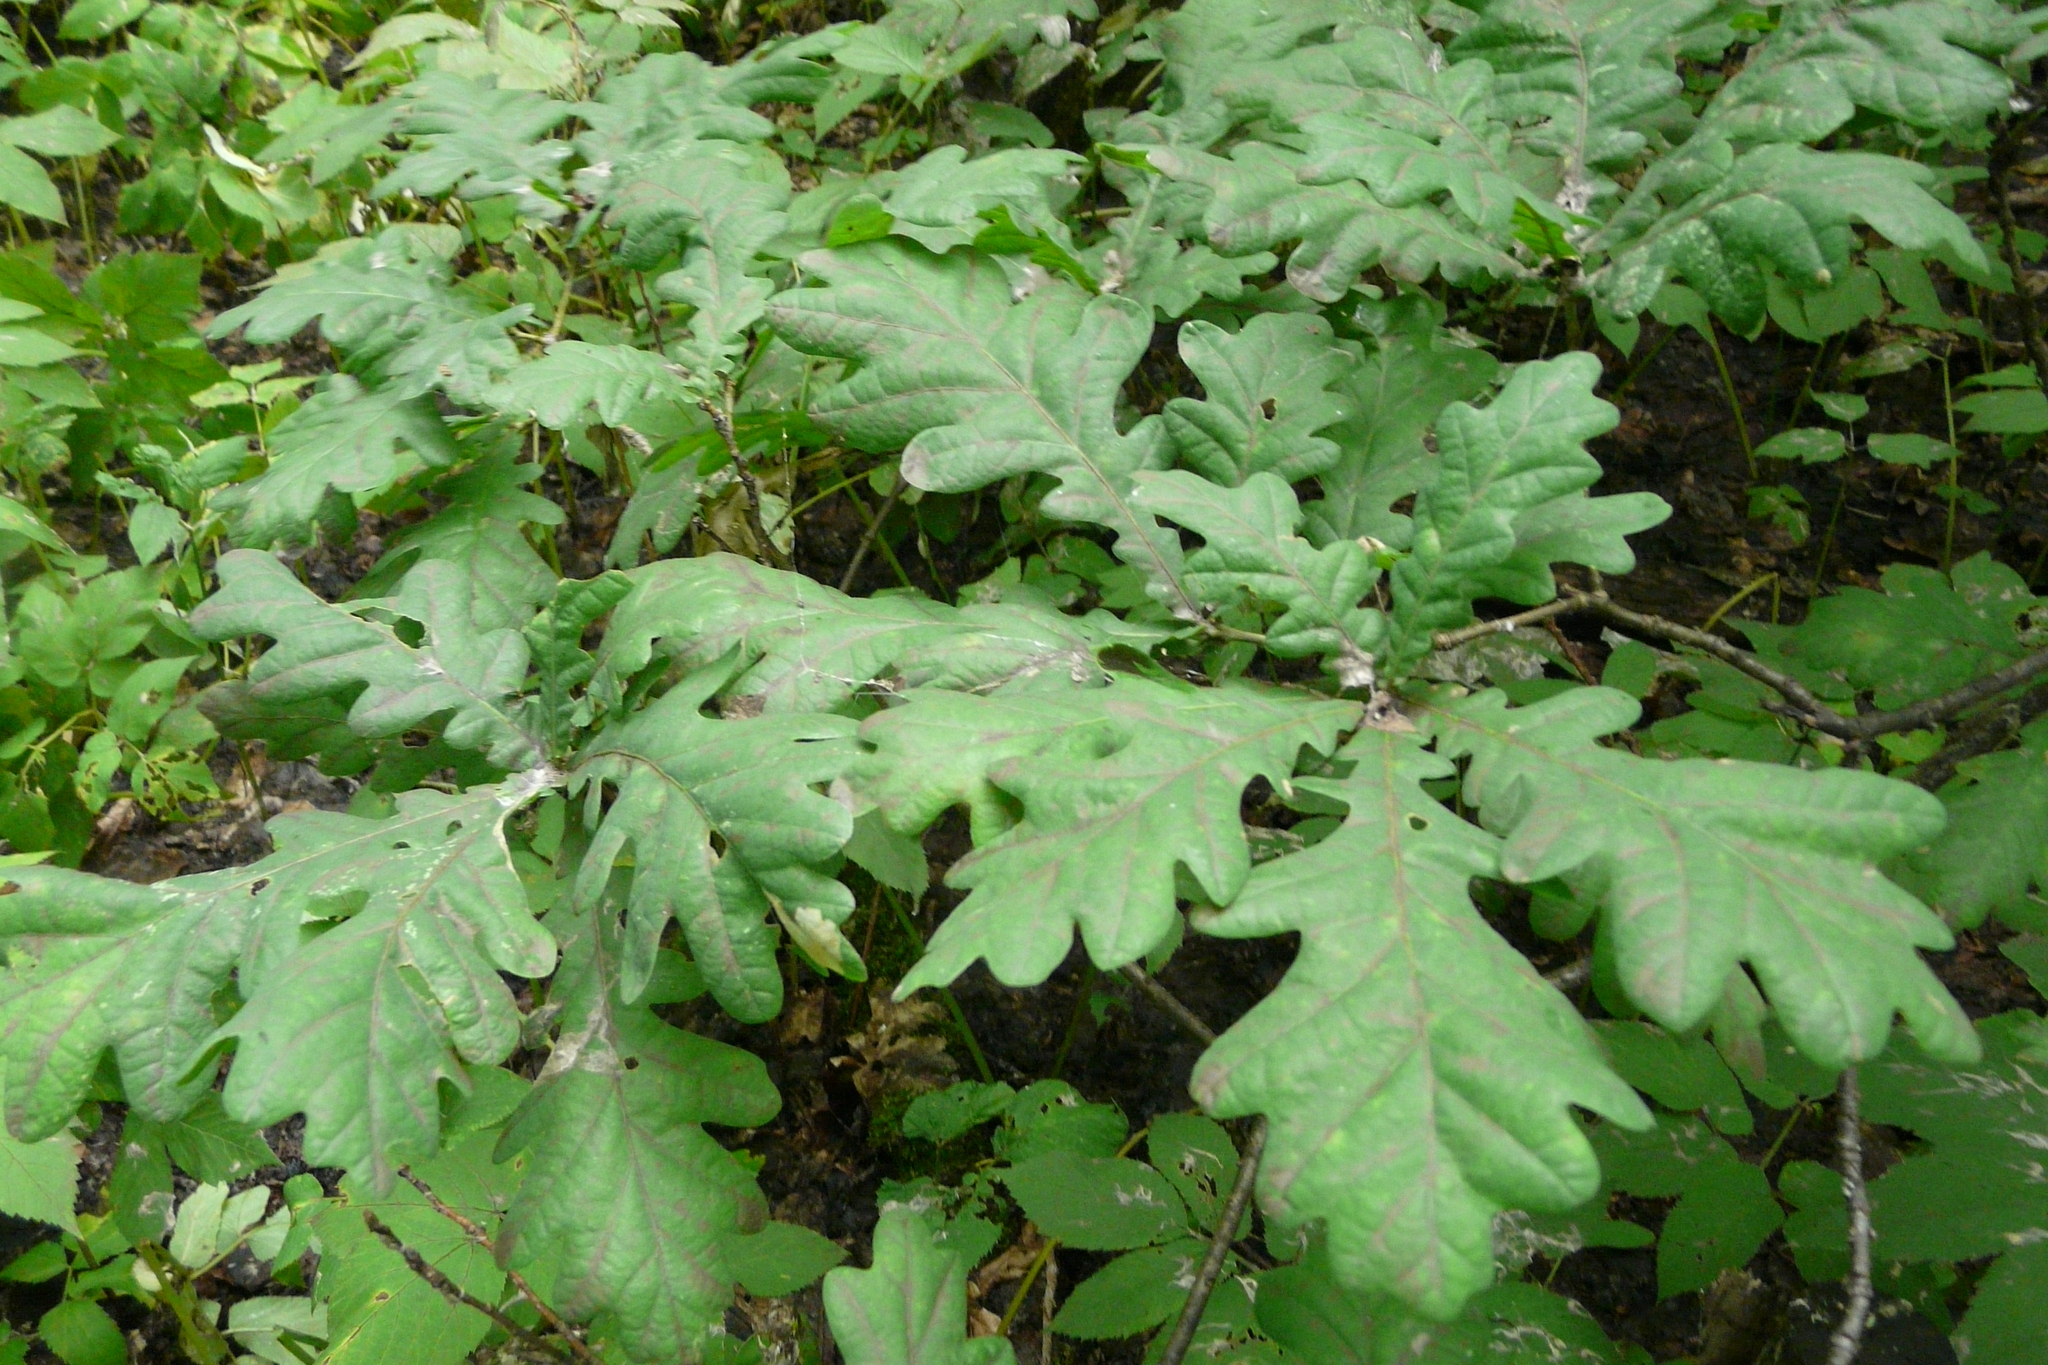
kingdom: Plantae
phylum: Tracheophyta
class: Magnoliopsida
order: Fagales
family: Fagaceae
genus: Quercus
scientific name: Quercus robur
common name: Pedunculate oak
